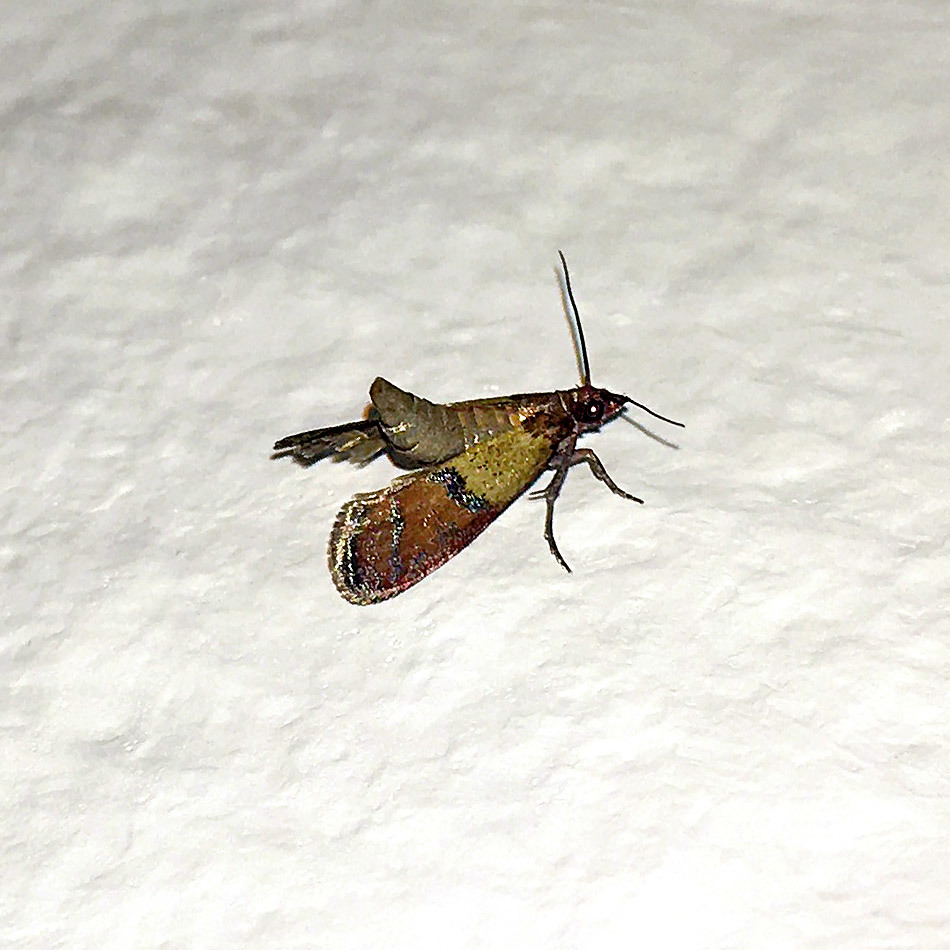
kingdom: Animalia
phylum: Arthropoda
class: Insecta
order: Lepidoptera
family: Pyralidae
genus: Plodia
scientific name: Plodia interpunctella
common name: Indian meal moth
